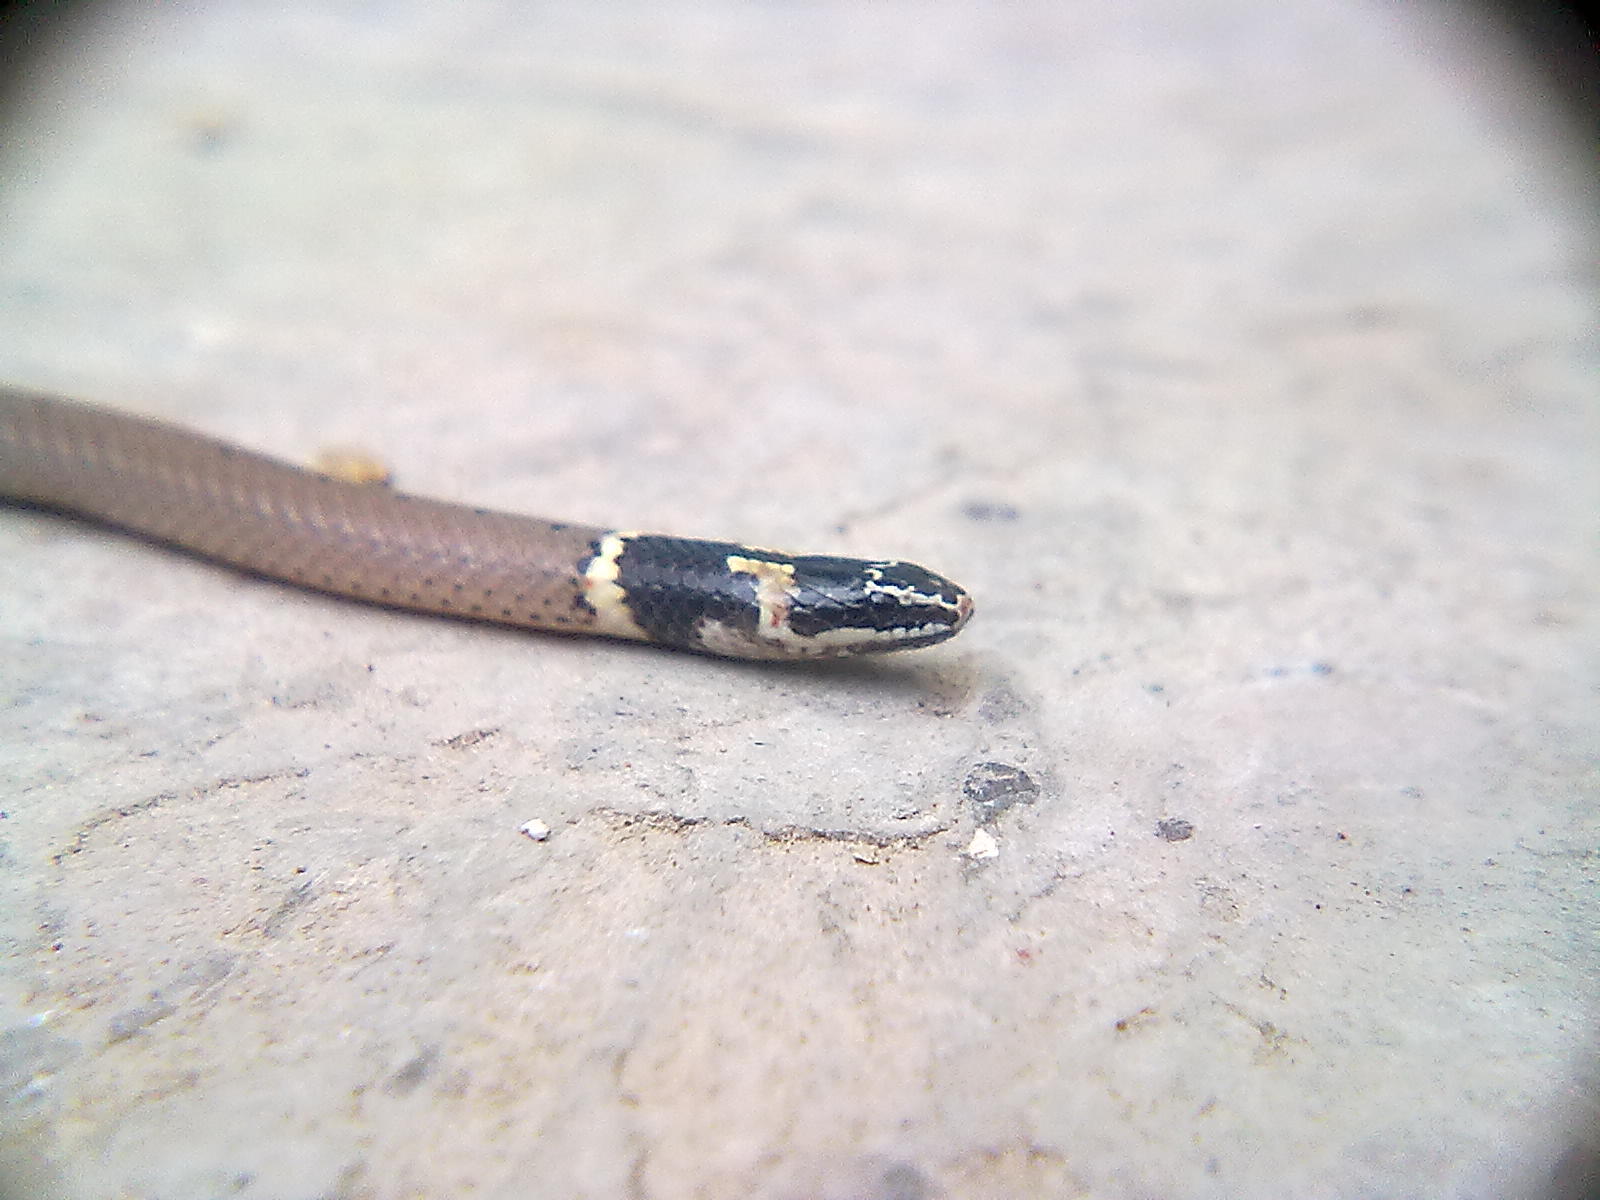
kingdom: Animalia
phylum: Chordata
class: Squamata
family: Colubridae
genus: Sibynophis
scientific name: Sibynophis subpunctatus
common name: Black-headed snake
